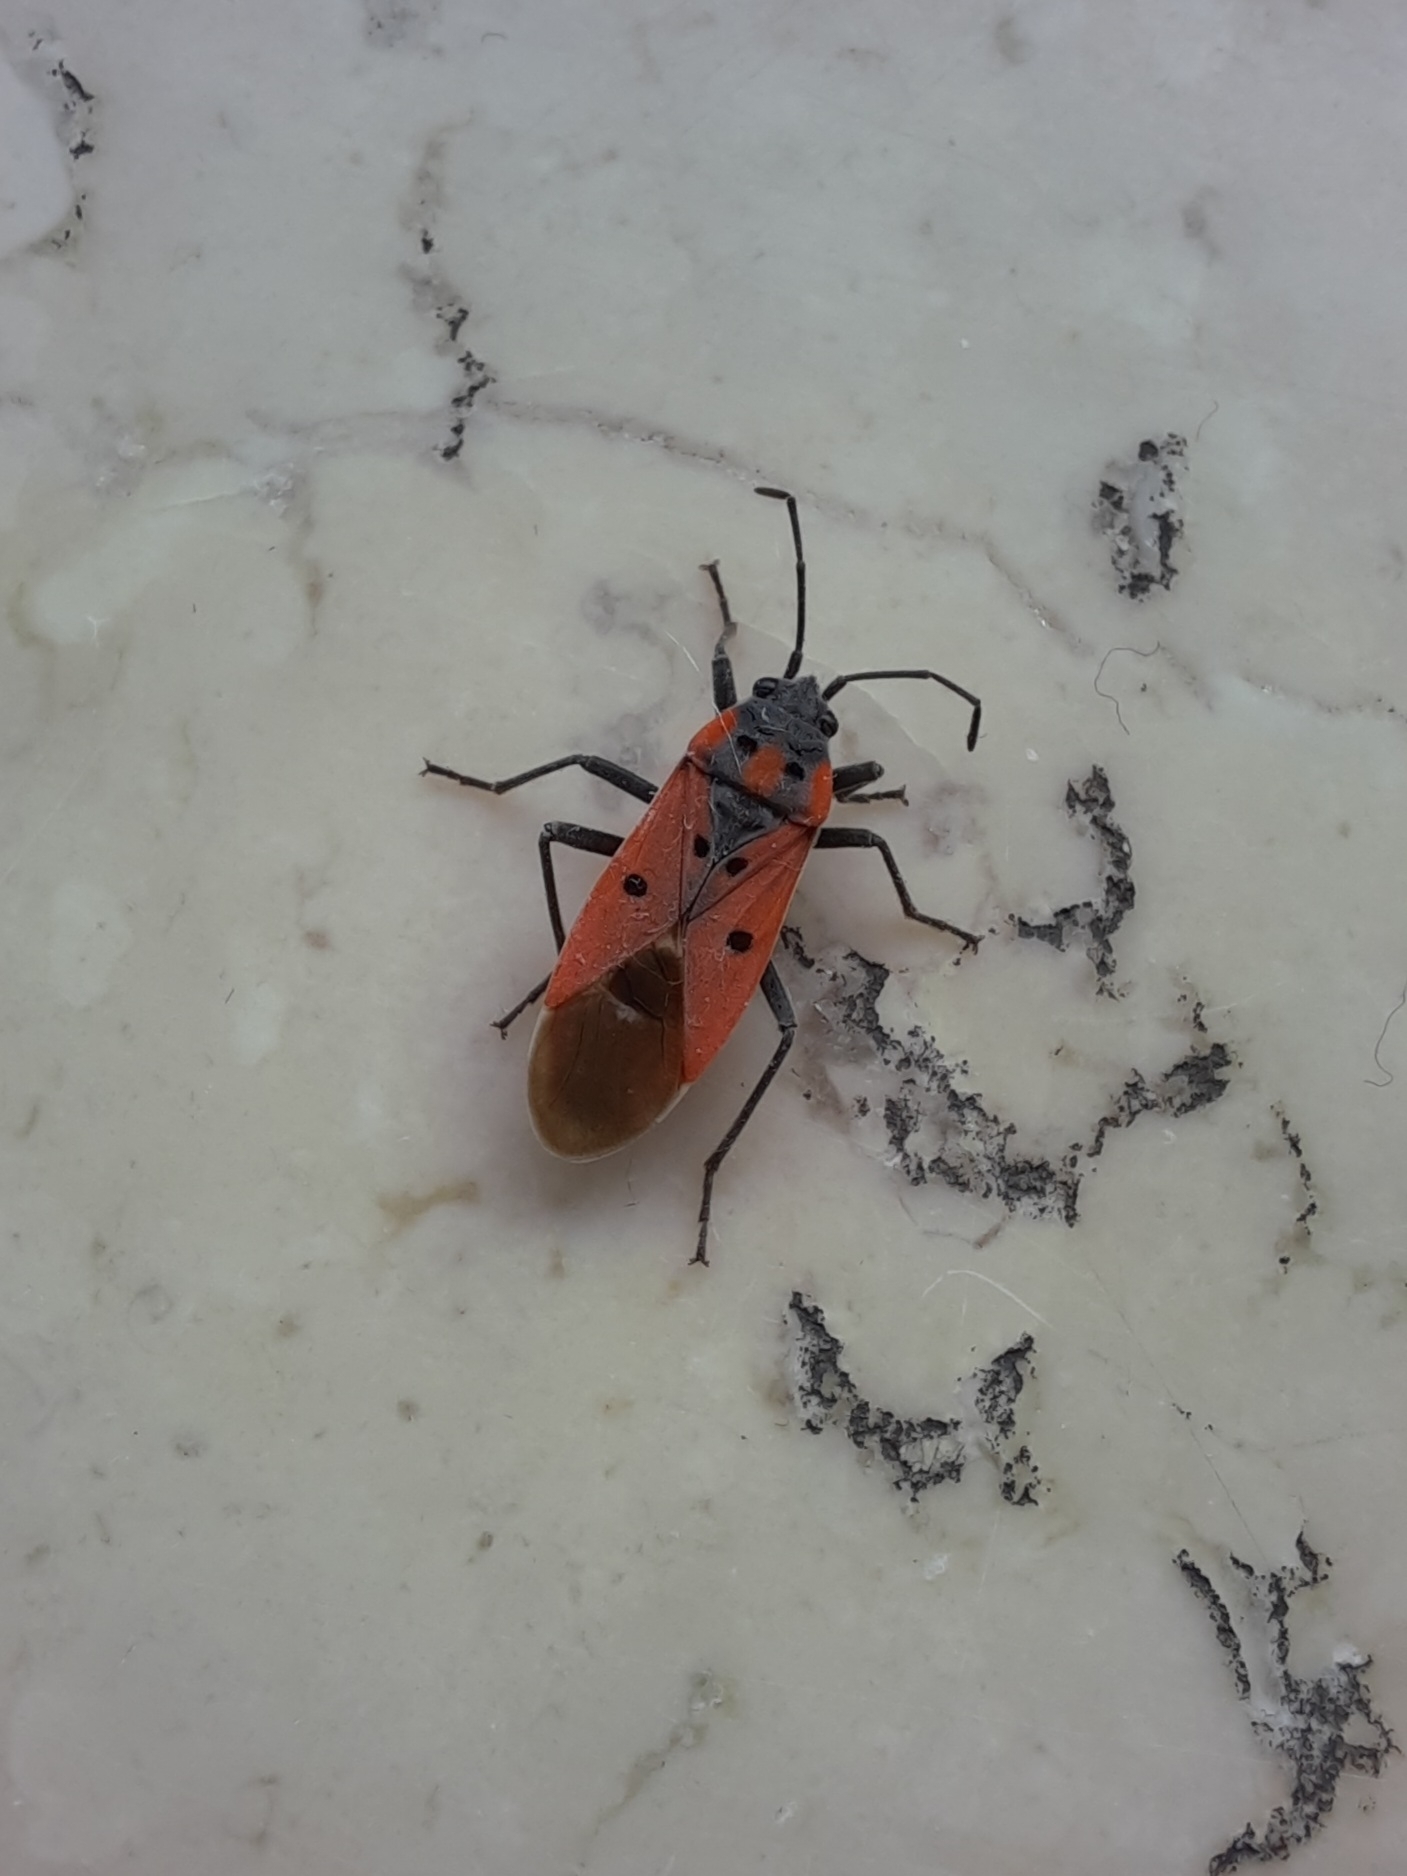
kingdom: Animalia
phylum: Arthropoda
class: Insecta
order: Hemiptera
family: Lygaeidae
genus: Lygaeus
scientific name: Lygaeus creticus
